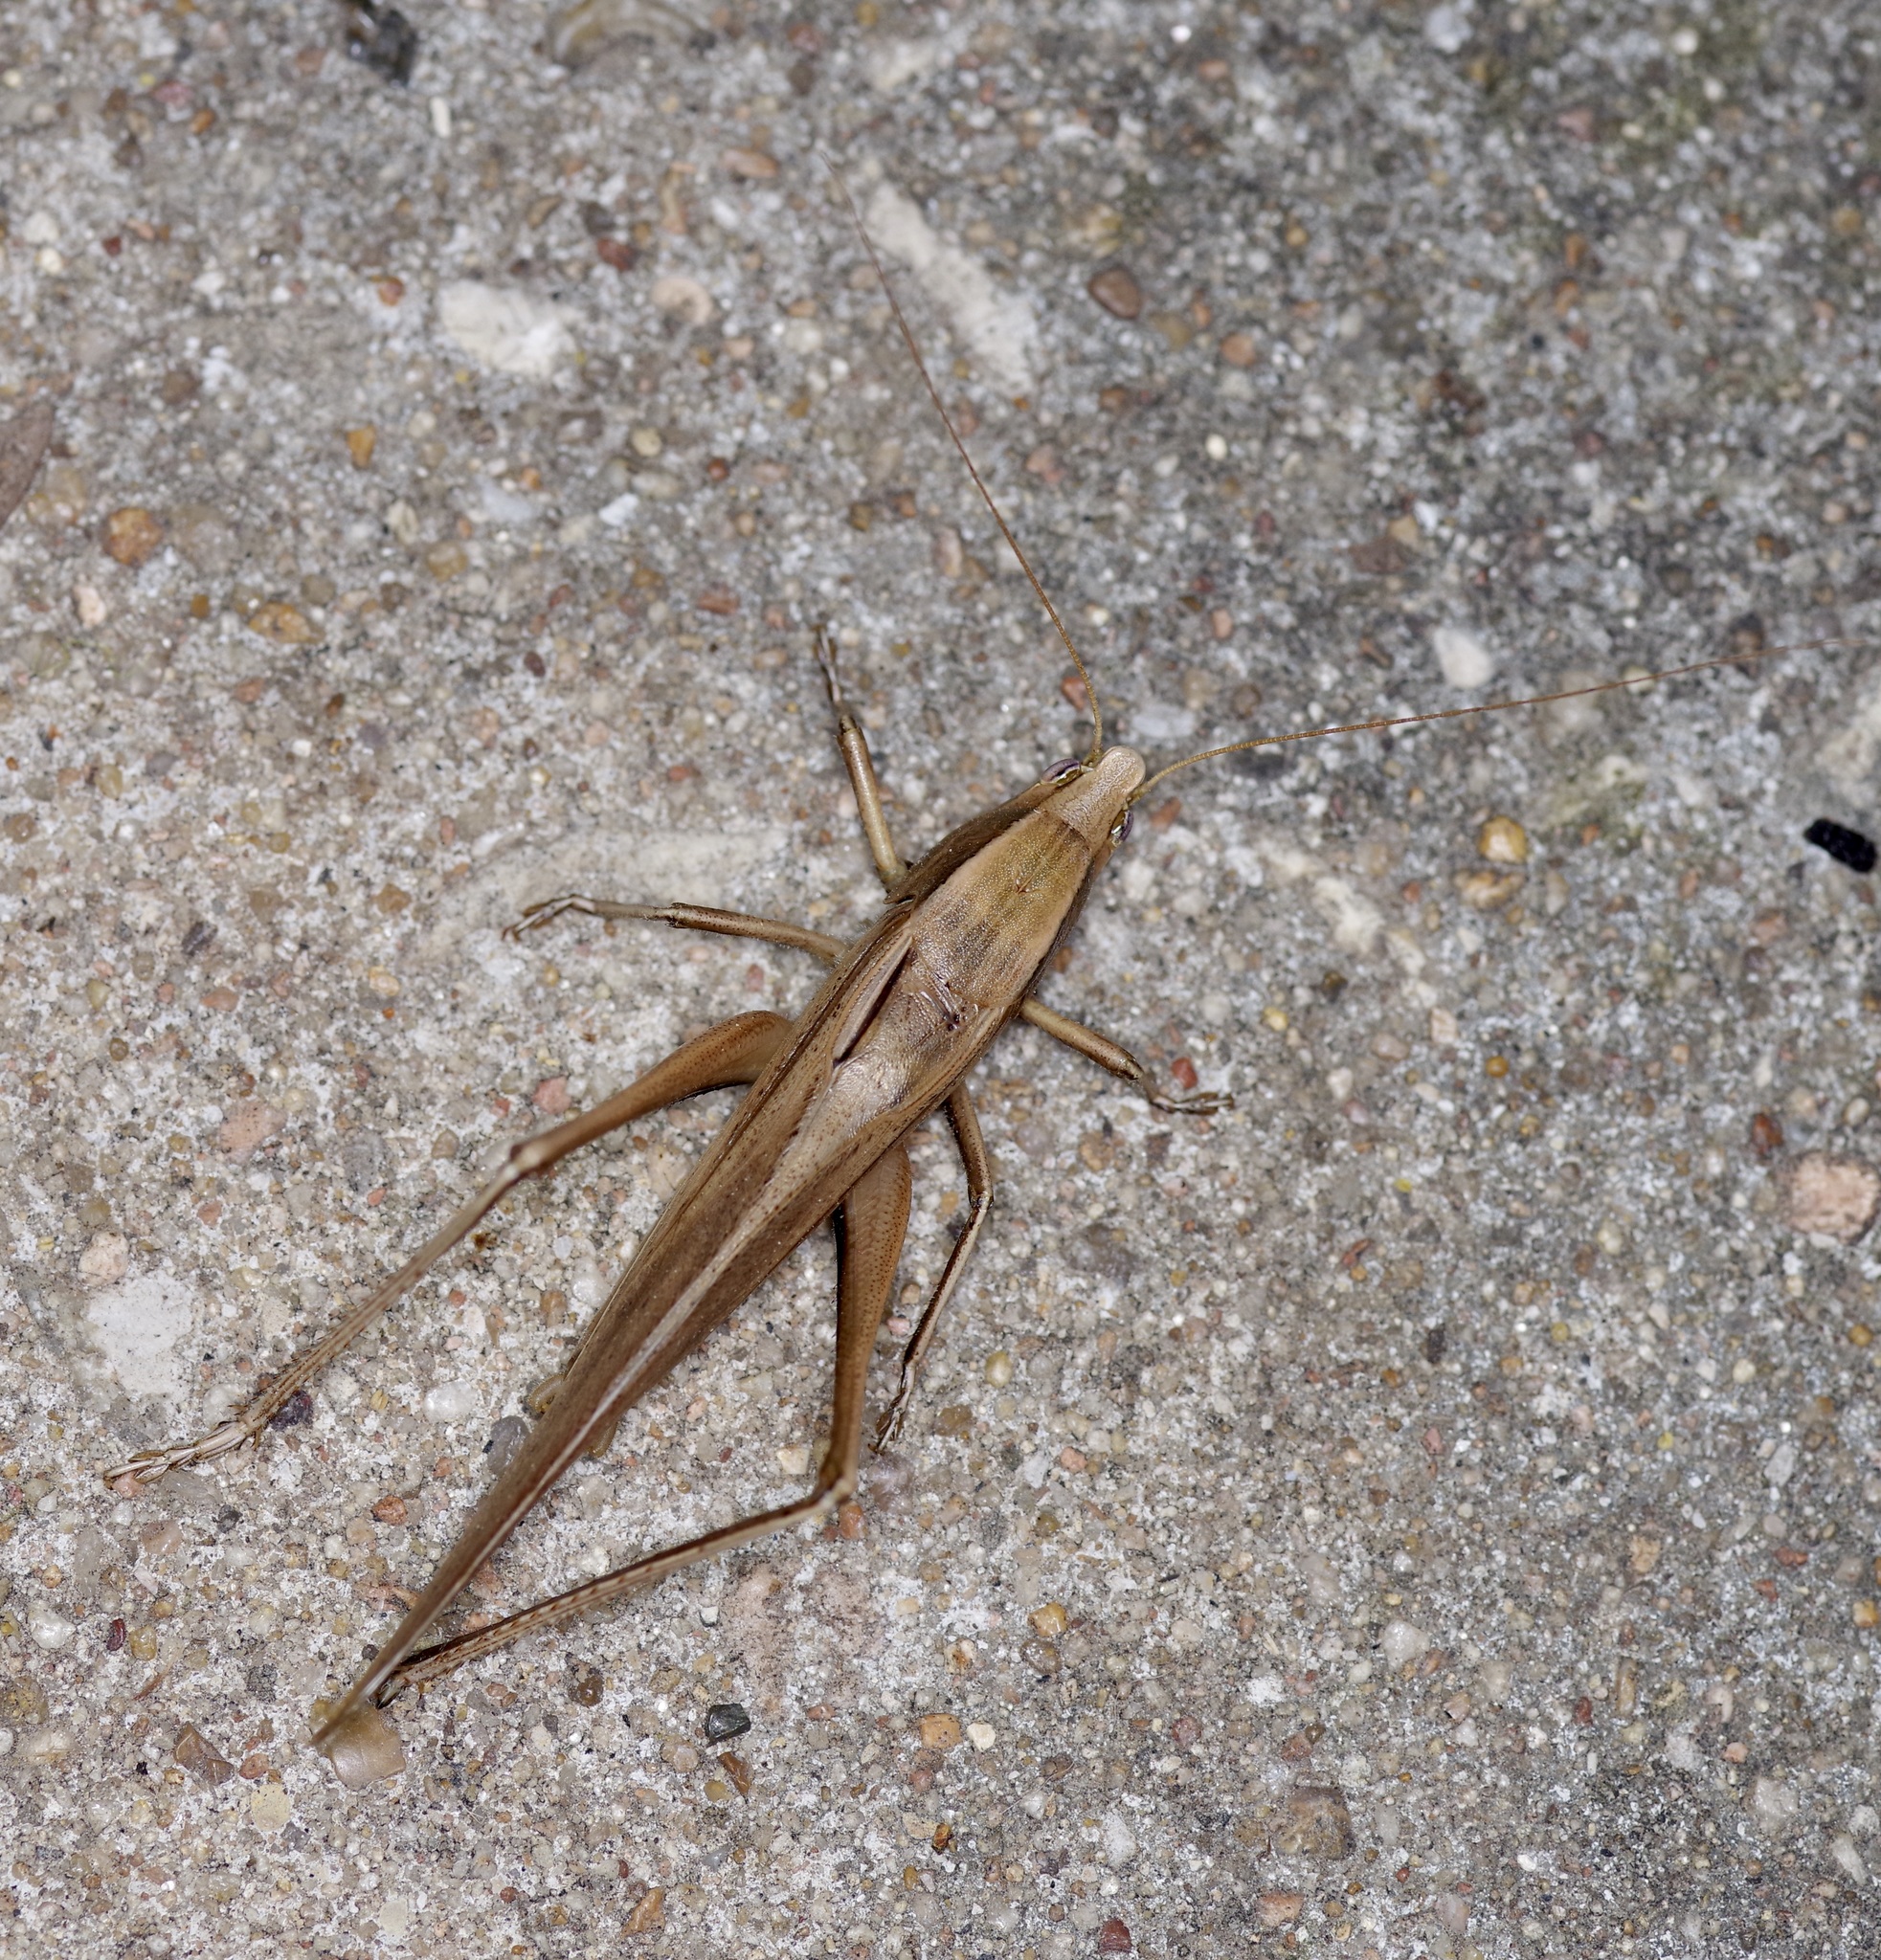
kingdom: Animalia
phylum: Arthropoda
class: Insecta
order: Orthoptera
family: Tettigoniidae
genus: Neoconocephalus
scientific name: Neoconocephalus triops
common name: Broad-tipped conehead
